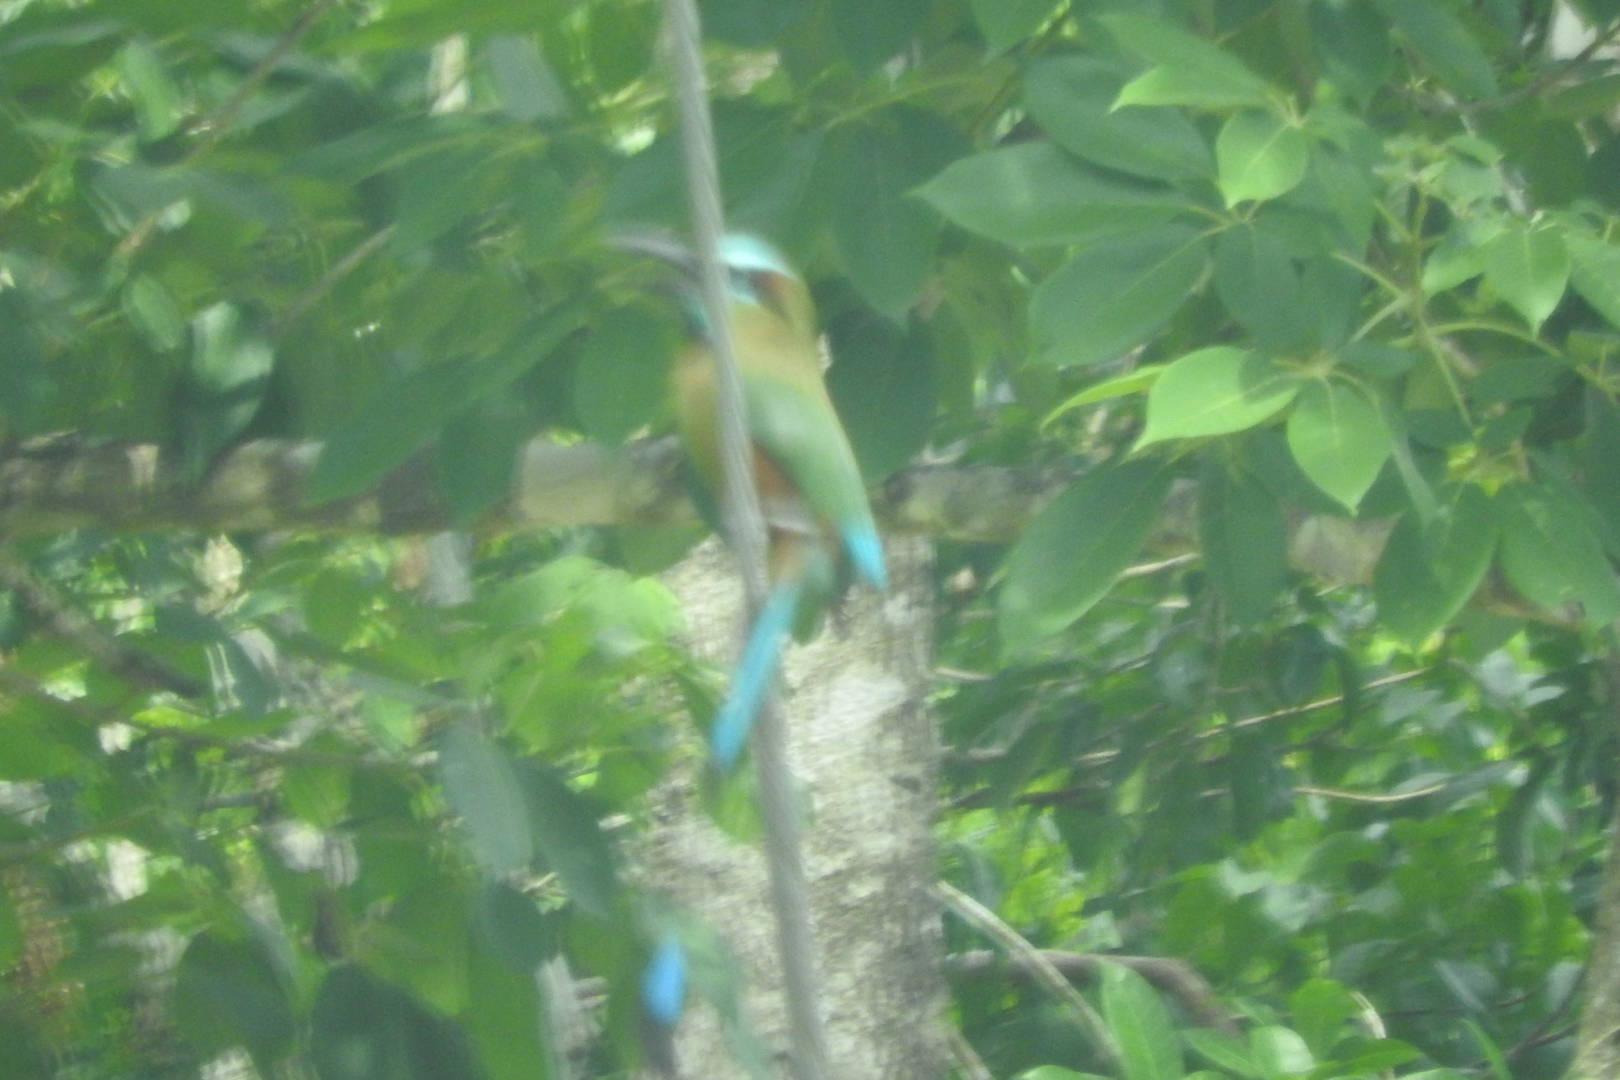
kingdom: Animalia
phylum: Chordata
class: Aves
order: Coraciiformes
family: Momotidae
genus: Eumomota
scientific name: Eumomota superciliosa
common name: Turquoise-browed motmot
